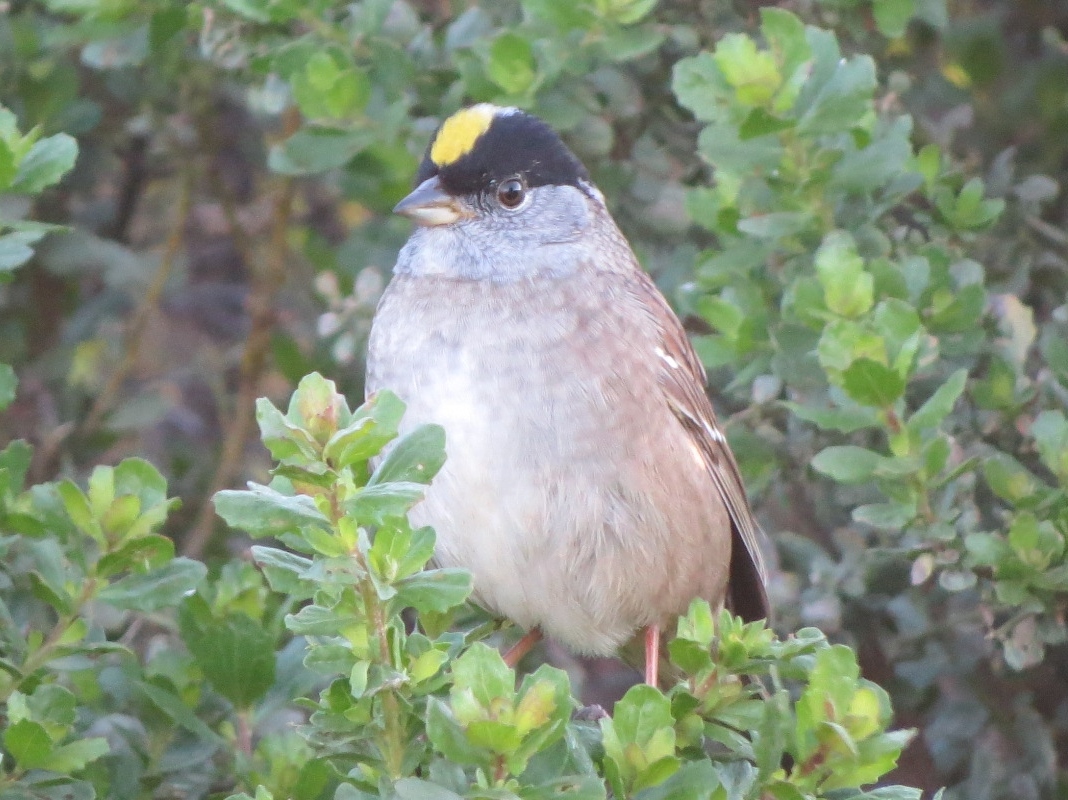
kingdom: Animalia
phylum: Chordata
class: Aves
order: Passeriformes
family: Passerellidae
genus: Zonotrichia
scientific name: Zonotrichia atricapilla
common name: Golden-crowned sparrow
